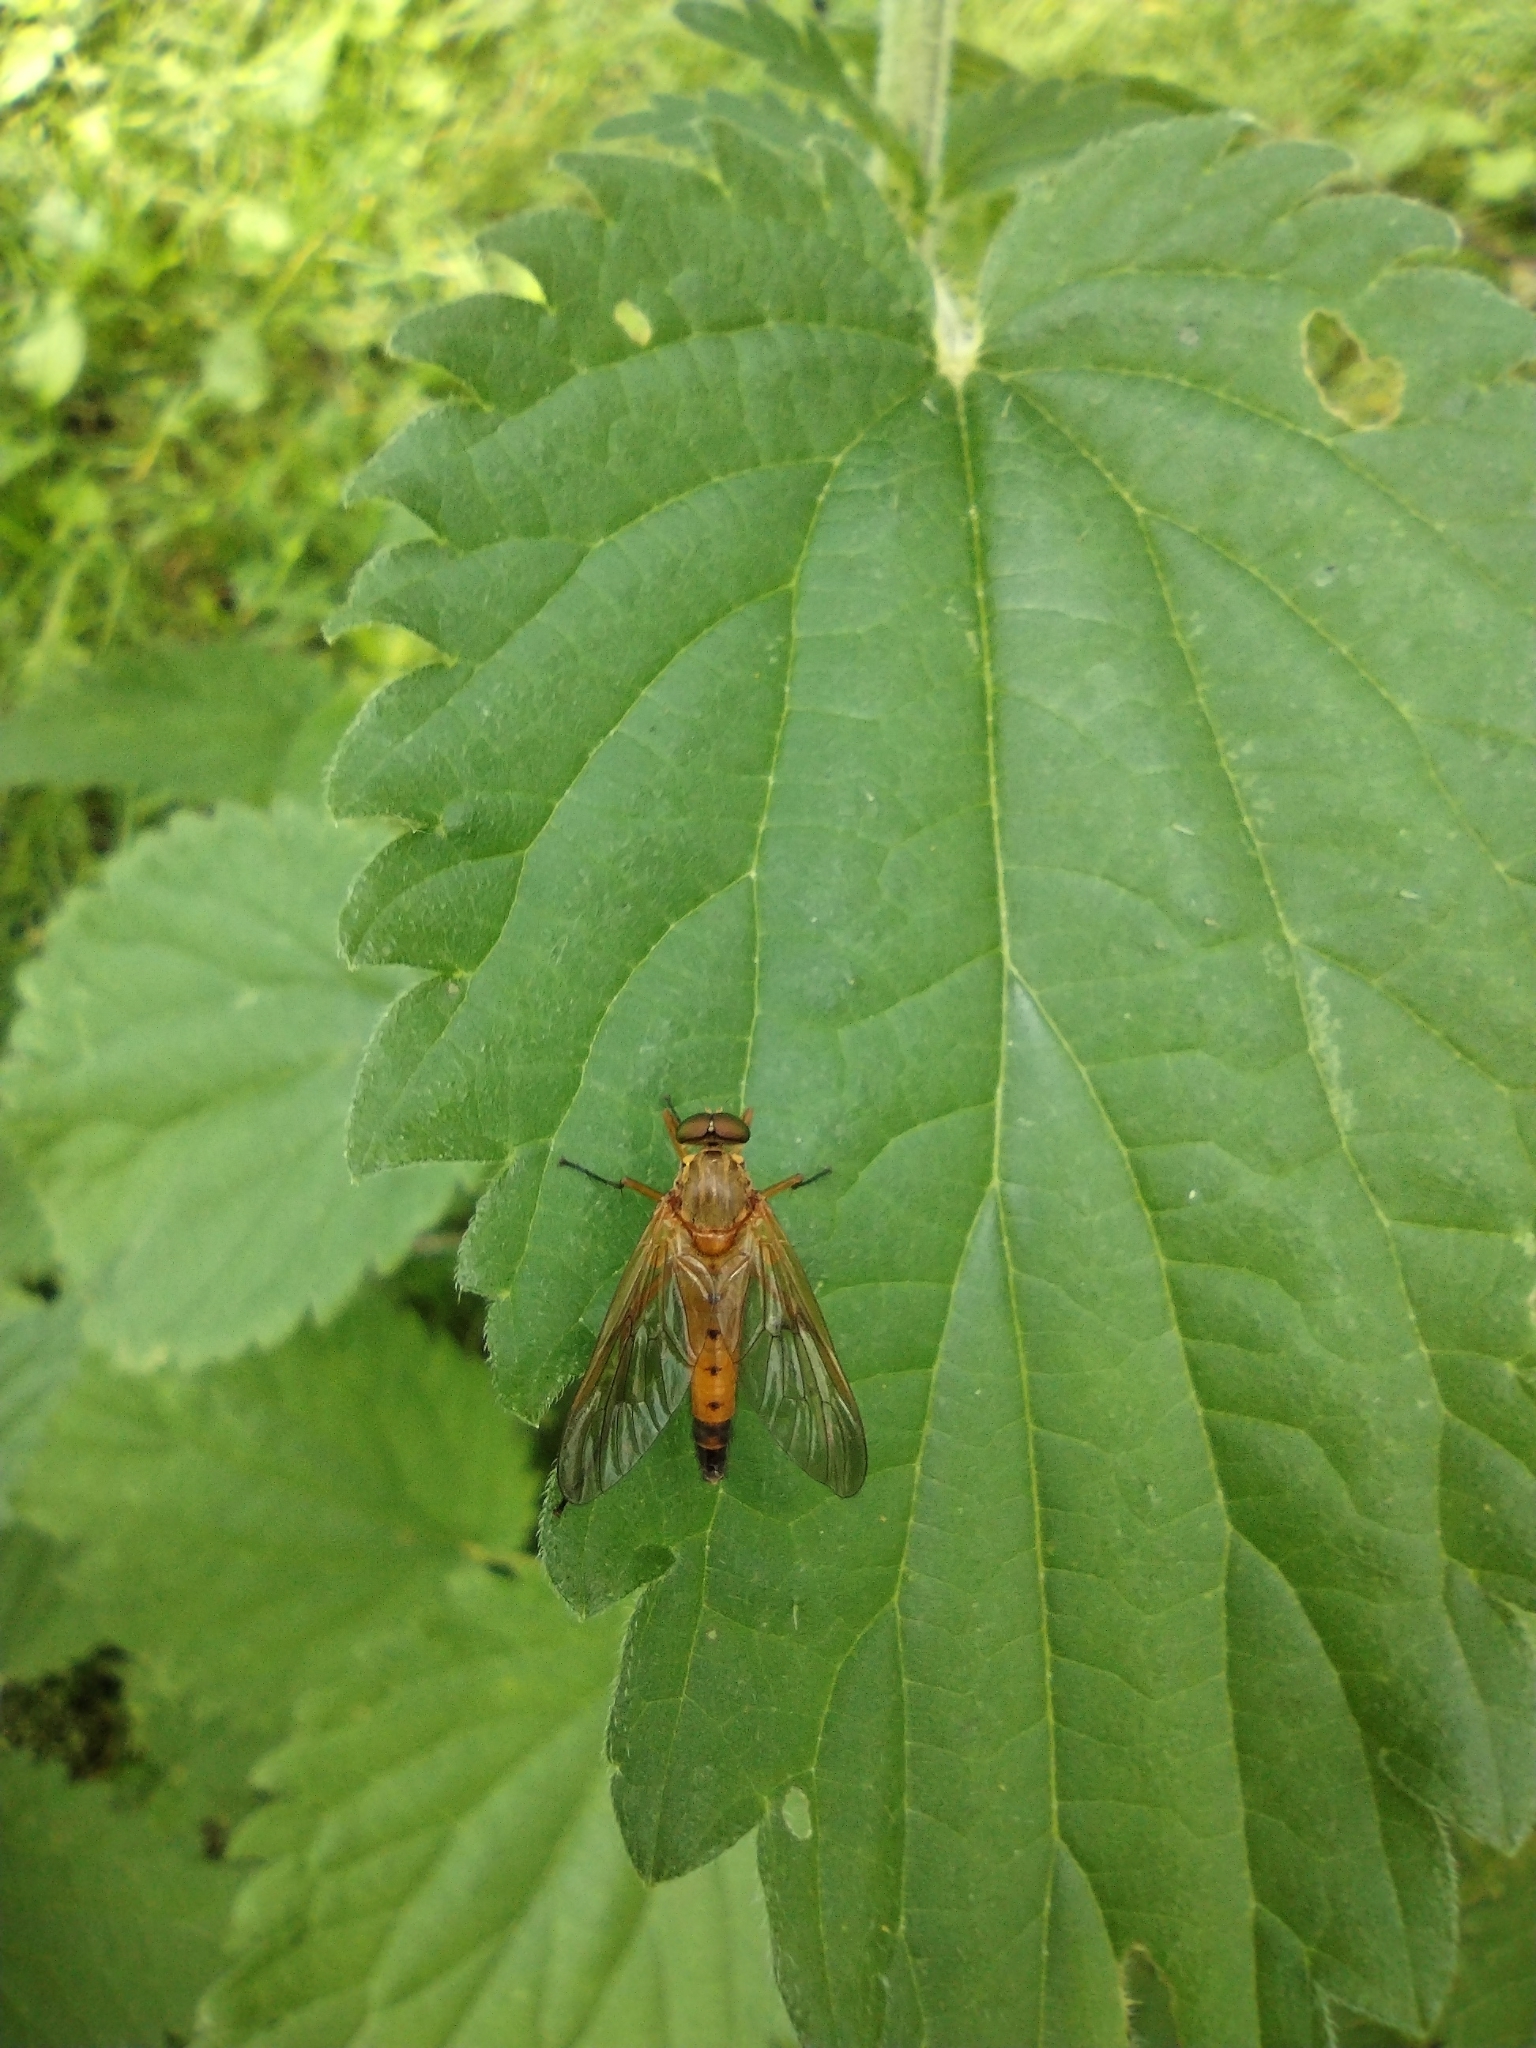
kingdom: Animalia
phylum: Arthropoda
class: Insecta
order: Diptera
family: Rhagionidae
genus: Rhagio
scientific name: Rhagio tringaria
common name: Marsh snipefly
